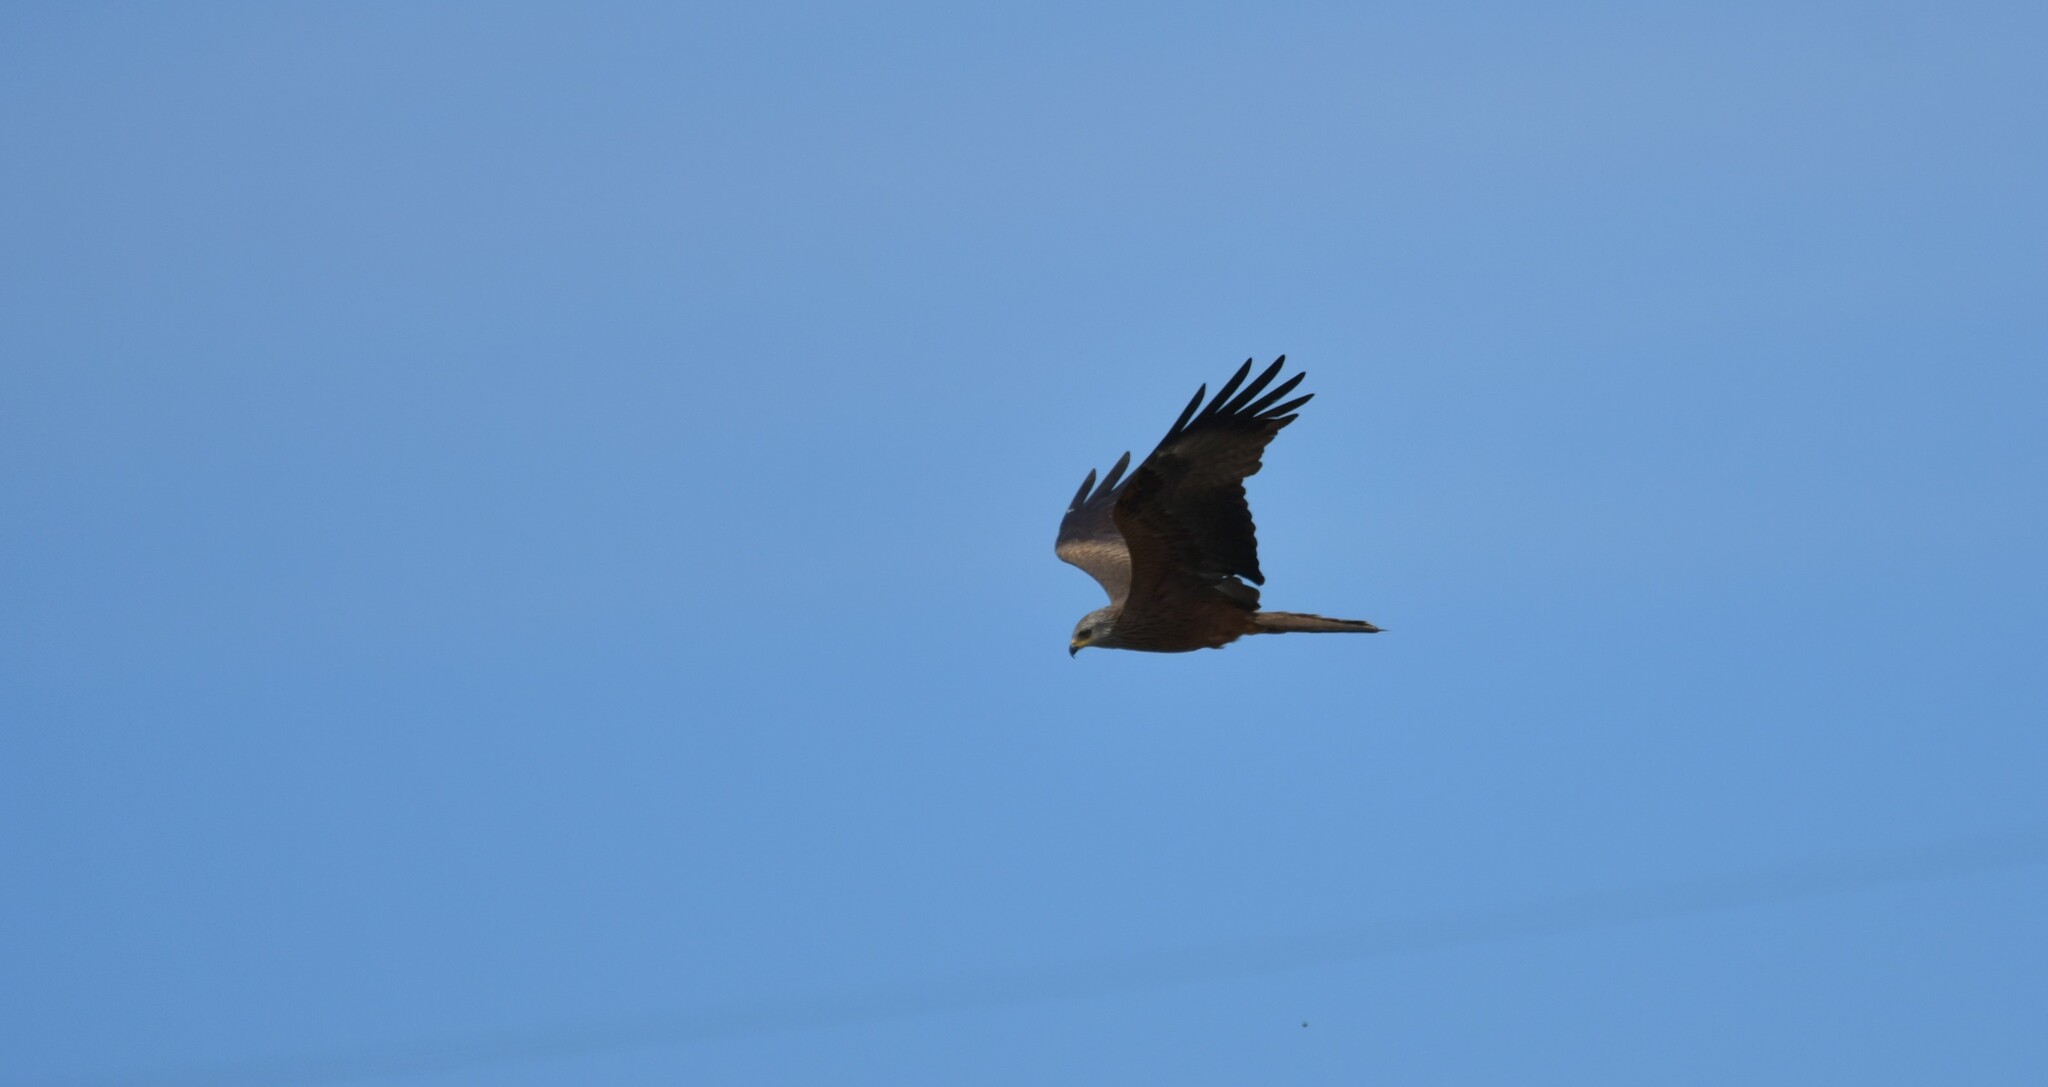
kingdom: Animalia
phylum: Chordata
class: Aves
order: Accipitriformes
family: Accipitridae
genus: Milvus
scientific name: Milvus migrans
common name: Black kite
